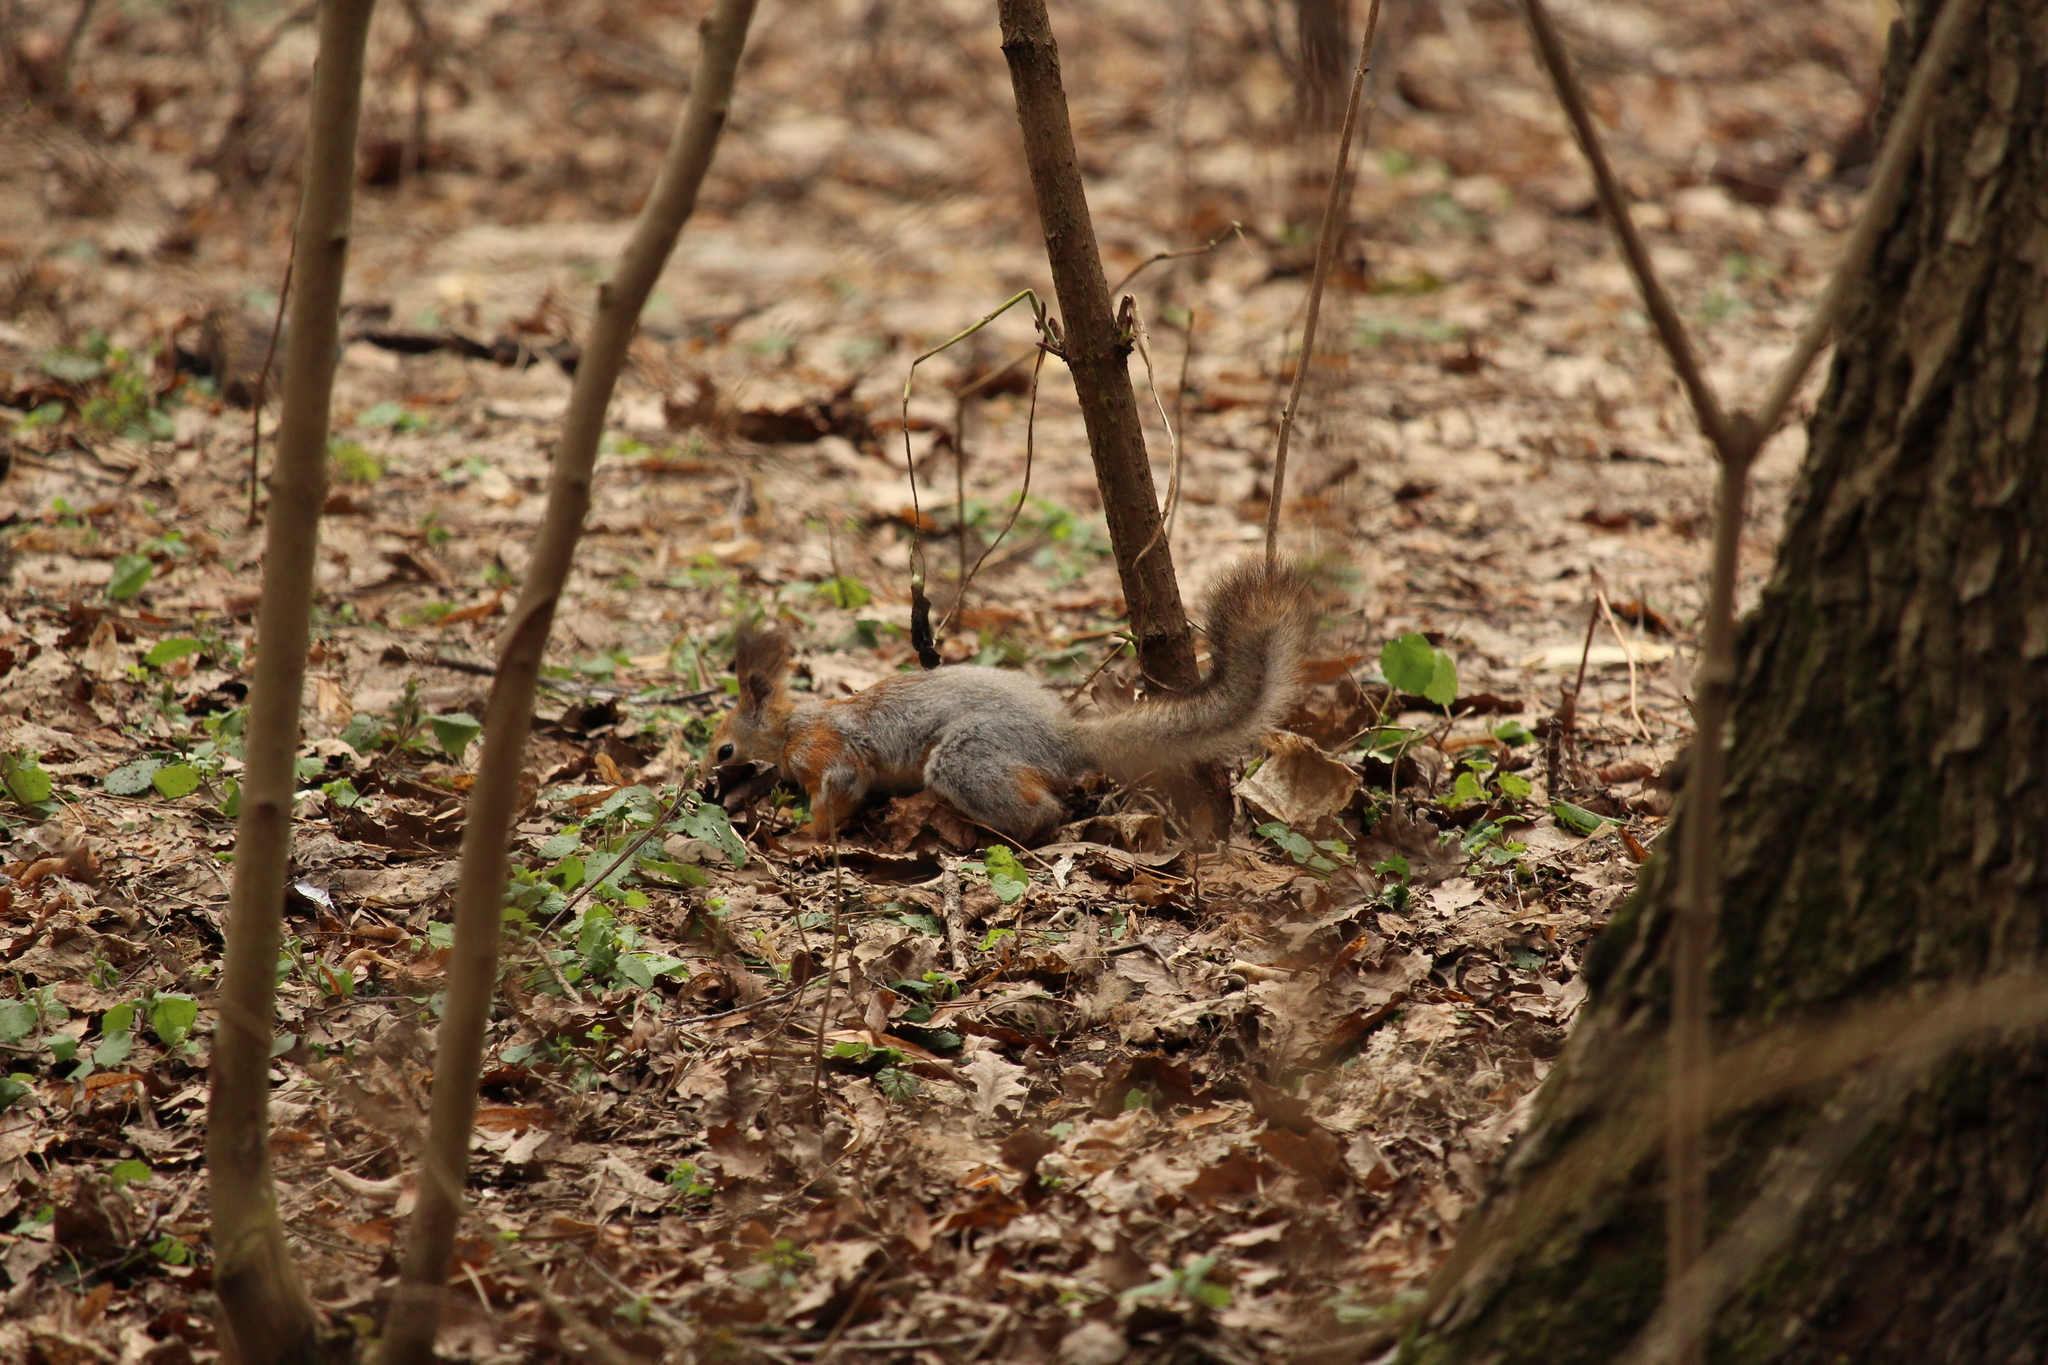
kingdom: Animalia
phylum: Chordata
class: Mammalia
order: Rodentia
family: Sciuridae
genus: Sciurus
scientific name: Sciurus vulgaris
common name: Eurasian red squirrel
